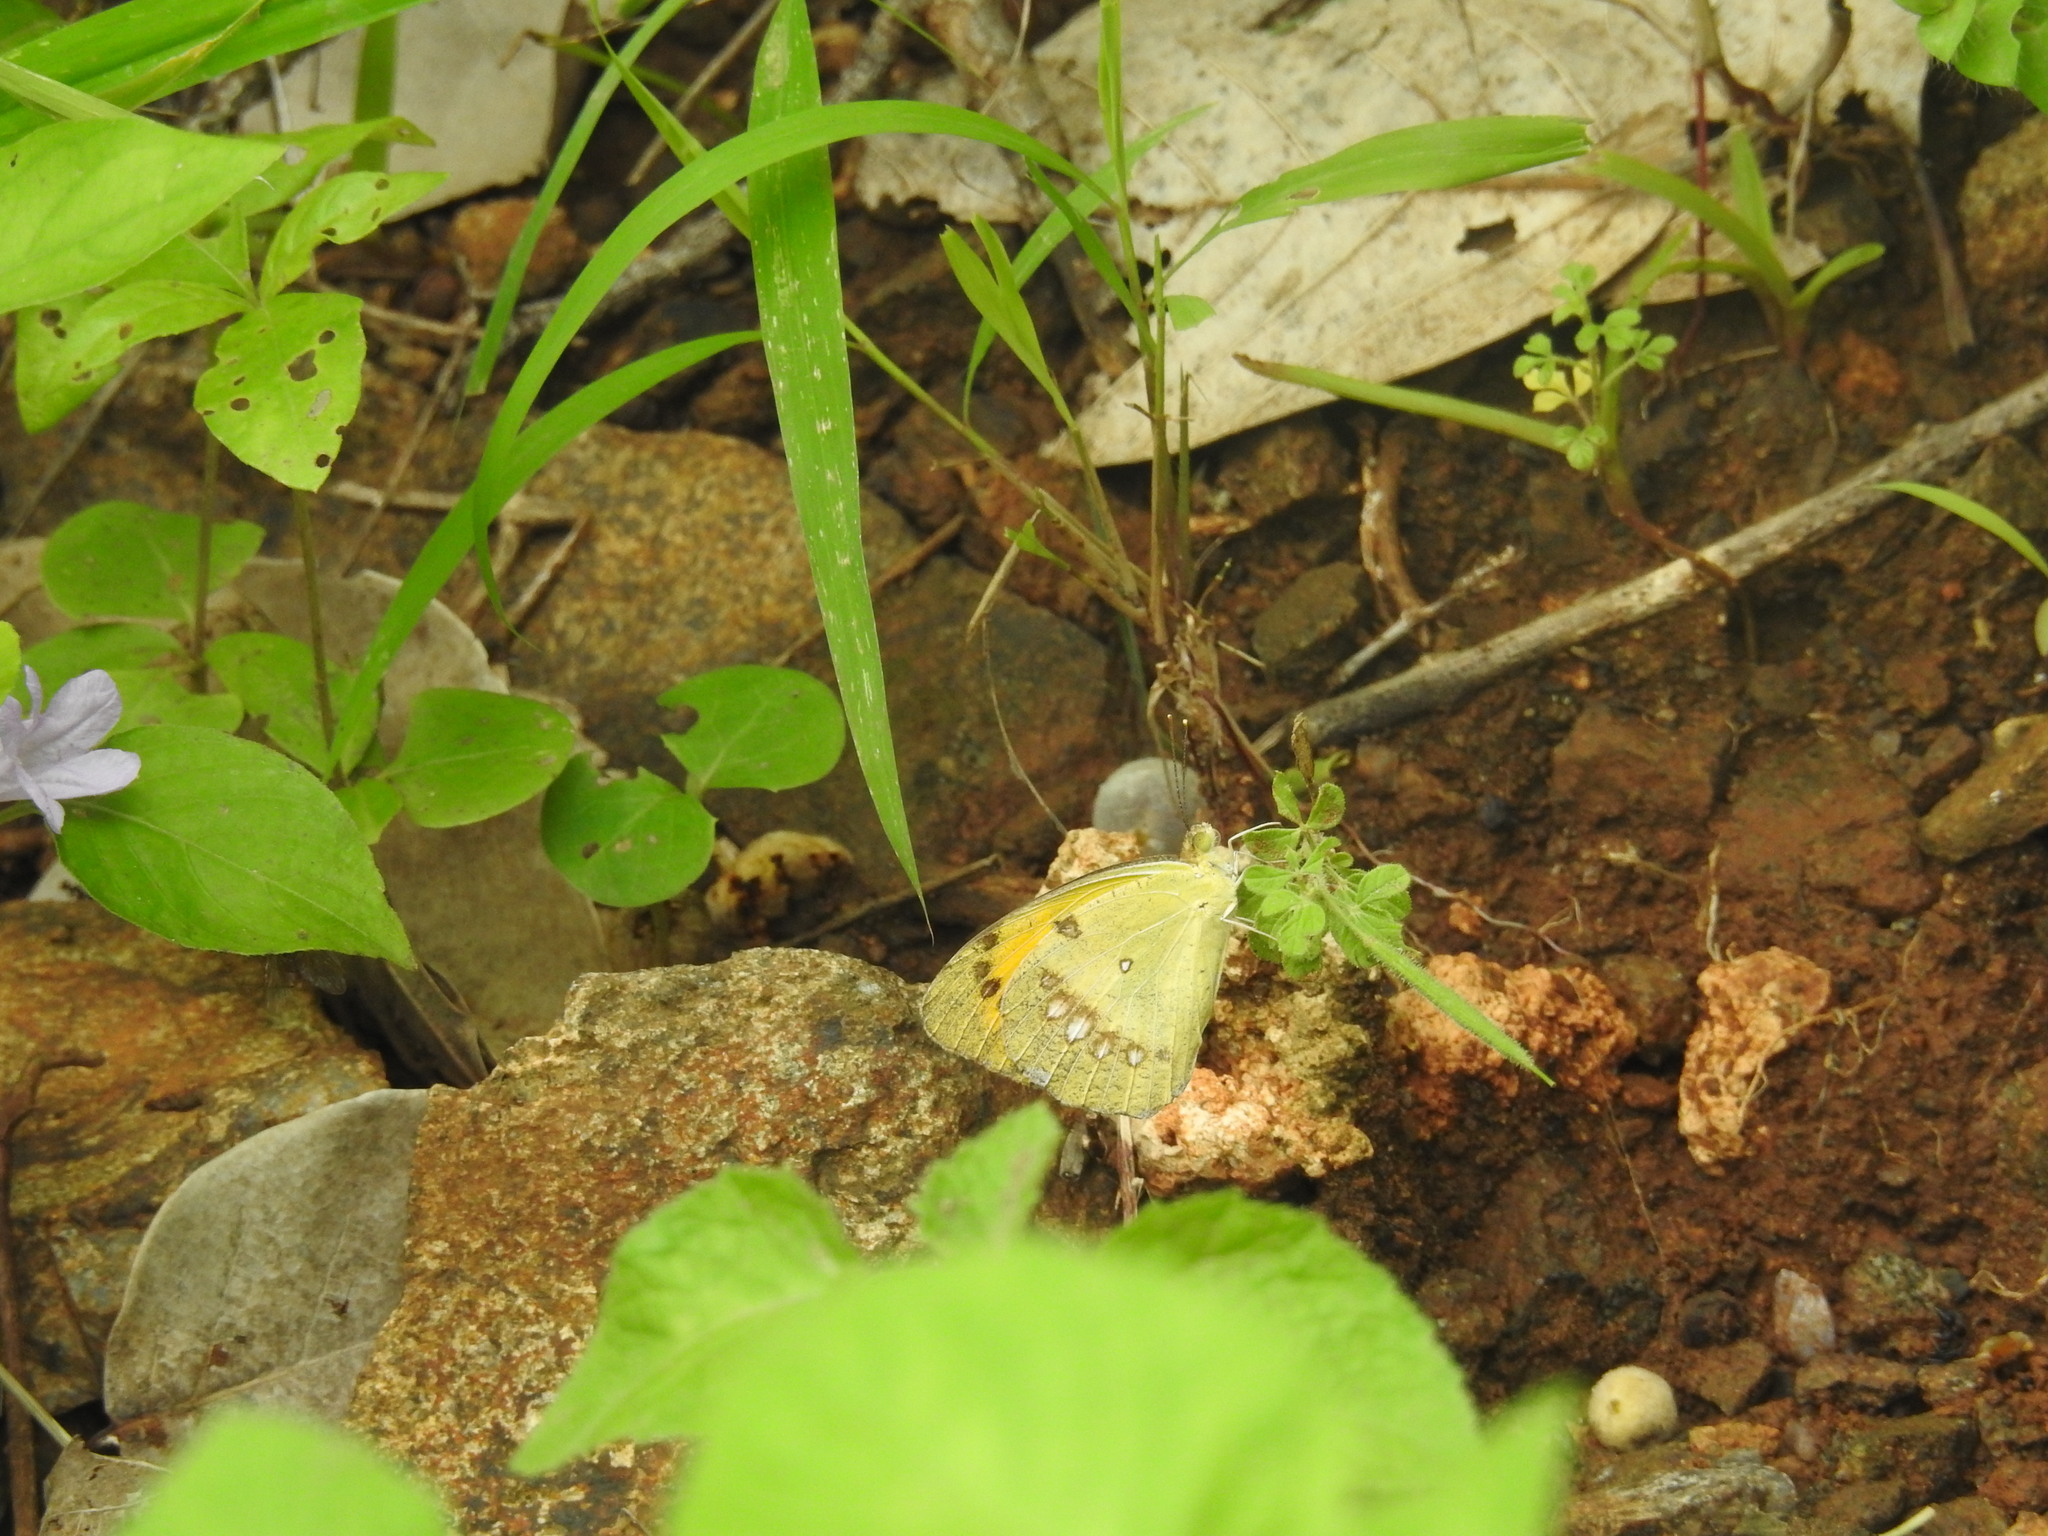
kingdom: Animalia
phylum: Arthropoda
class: Insecta
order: Lepidoptera
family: Pieridae
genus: Ixias
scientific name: Ixias marianne
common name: White orange tip
